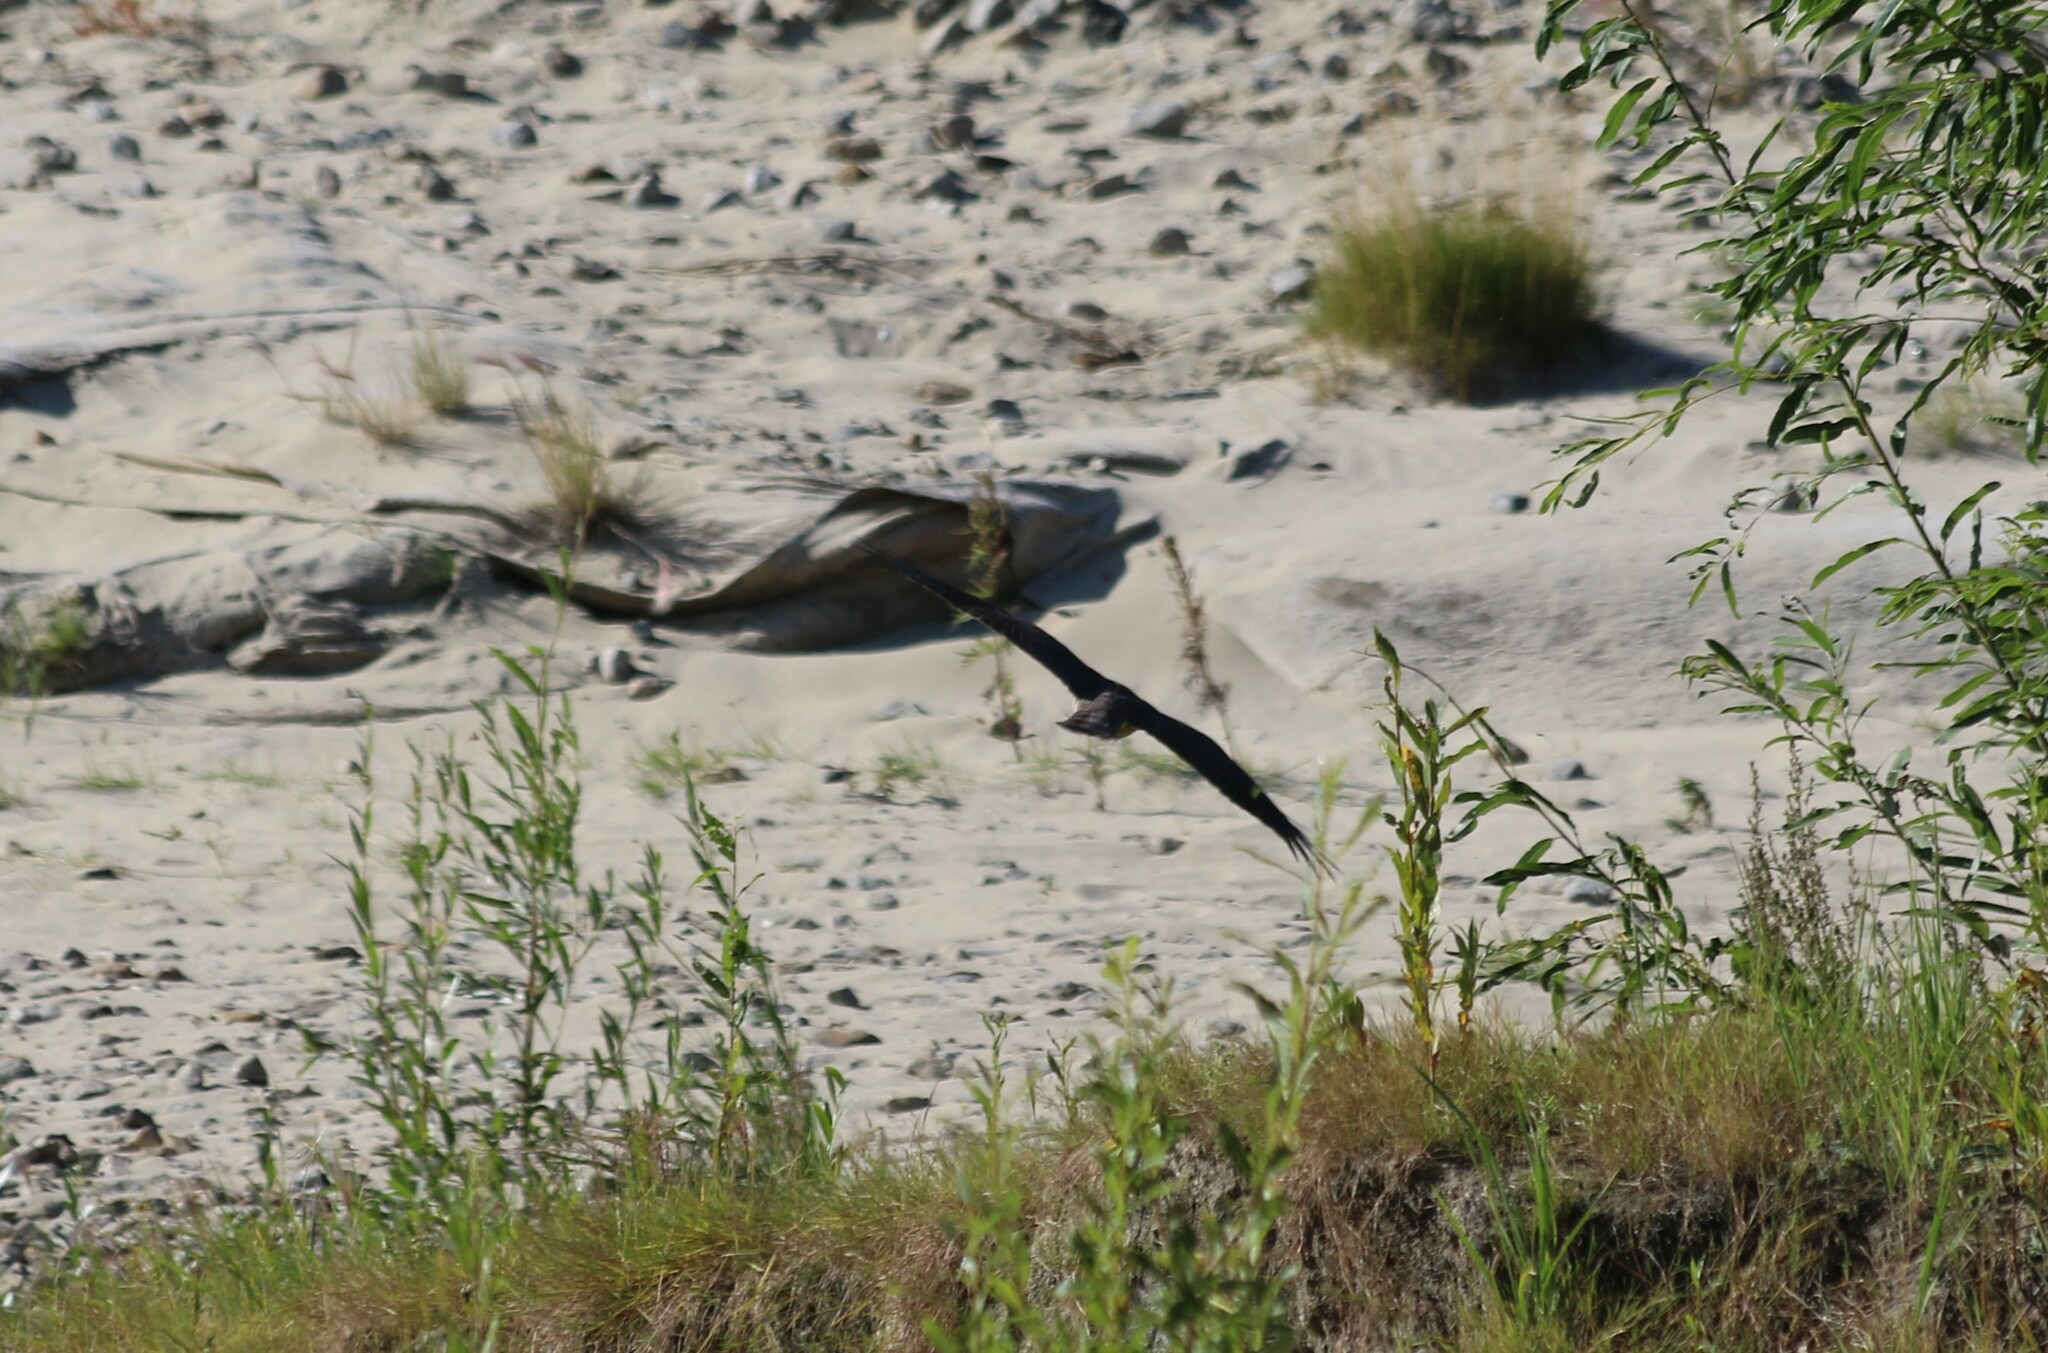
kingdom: Animalia
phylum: Chordata
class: Aves
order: Accipitriformes
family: Accipitridae
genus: Accipiter
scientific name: Accipiter nisus
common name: Eurasian sparrowhawk
